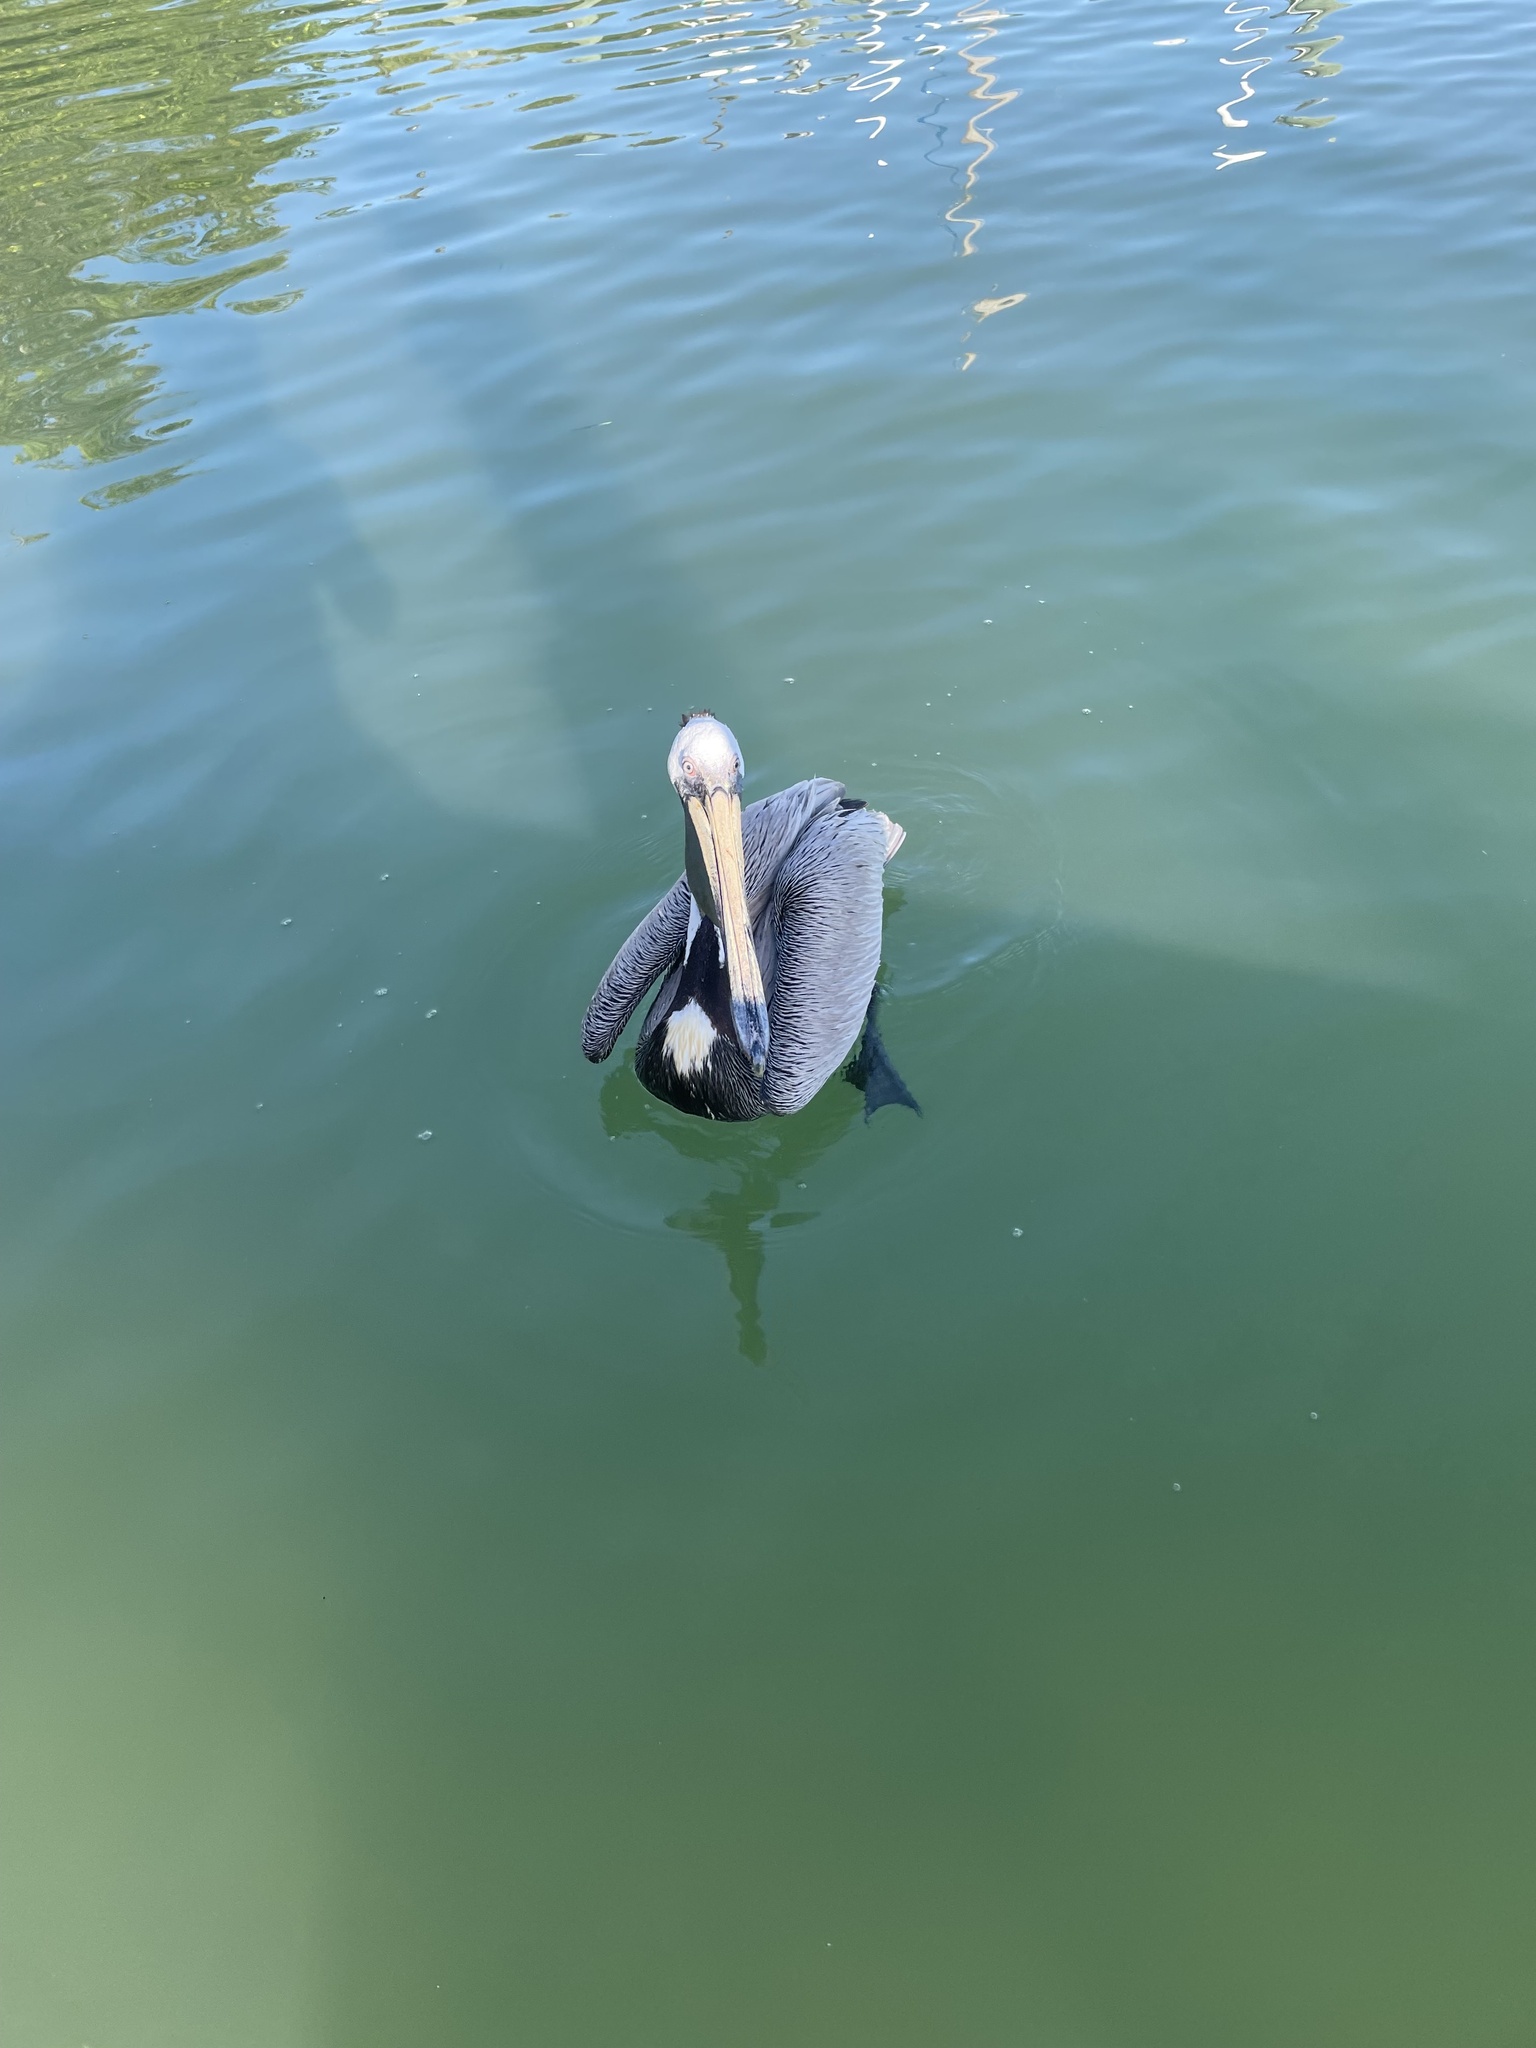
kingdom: Animalia
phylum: Chordata
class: Aves
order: Pelecaniformes
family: Pelecanidae
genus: Pelecanus
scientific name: Pelecanus occidentalis
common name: Brown pelican
